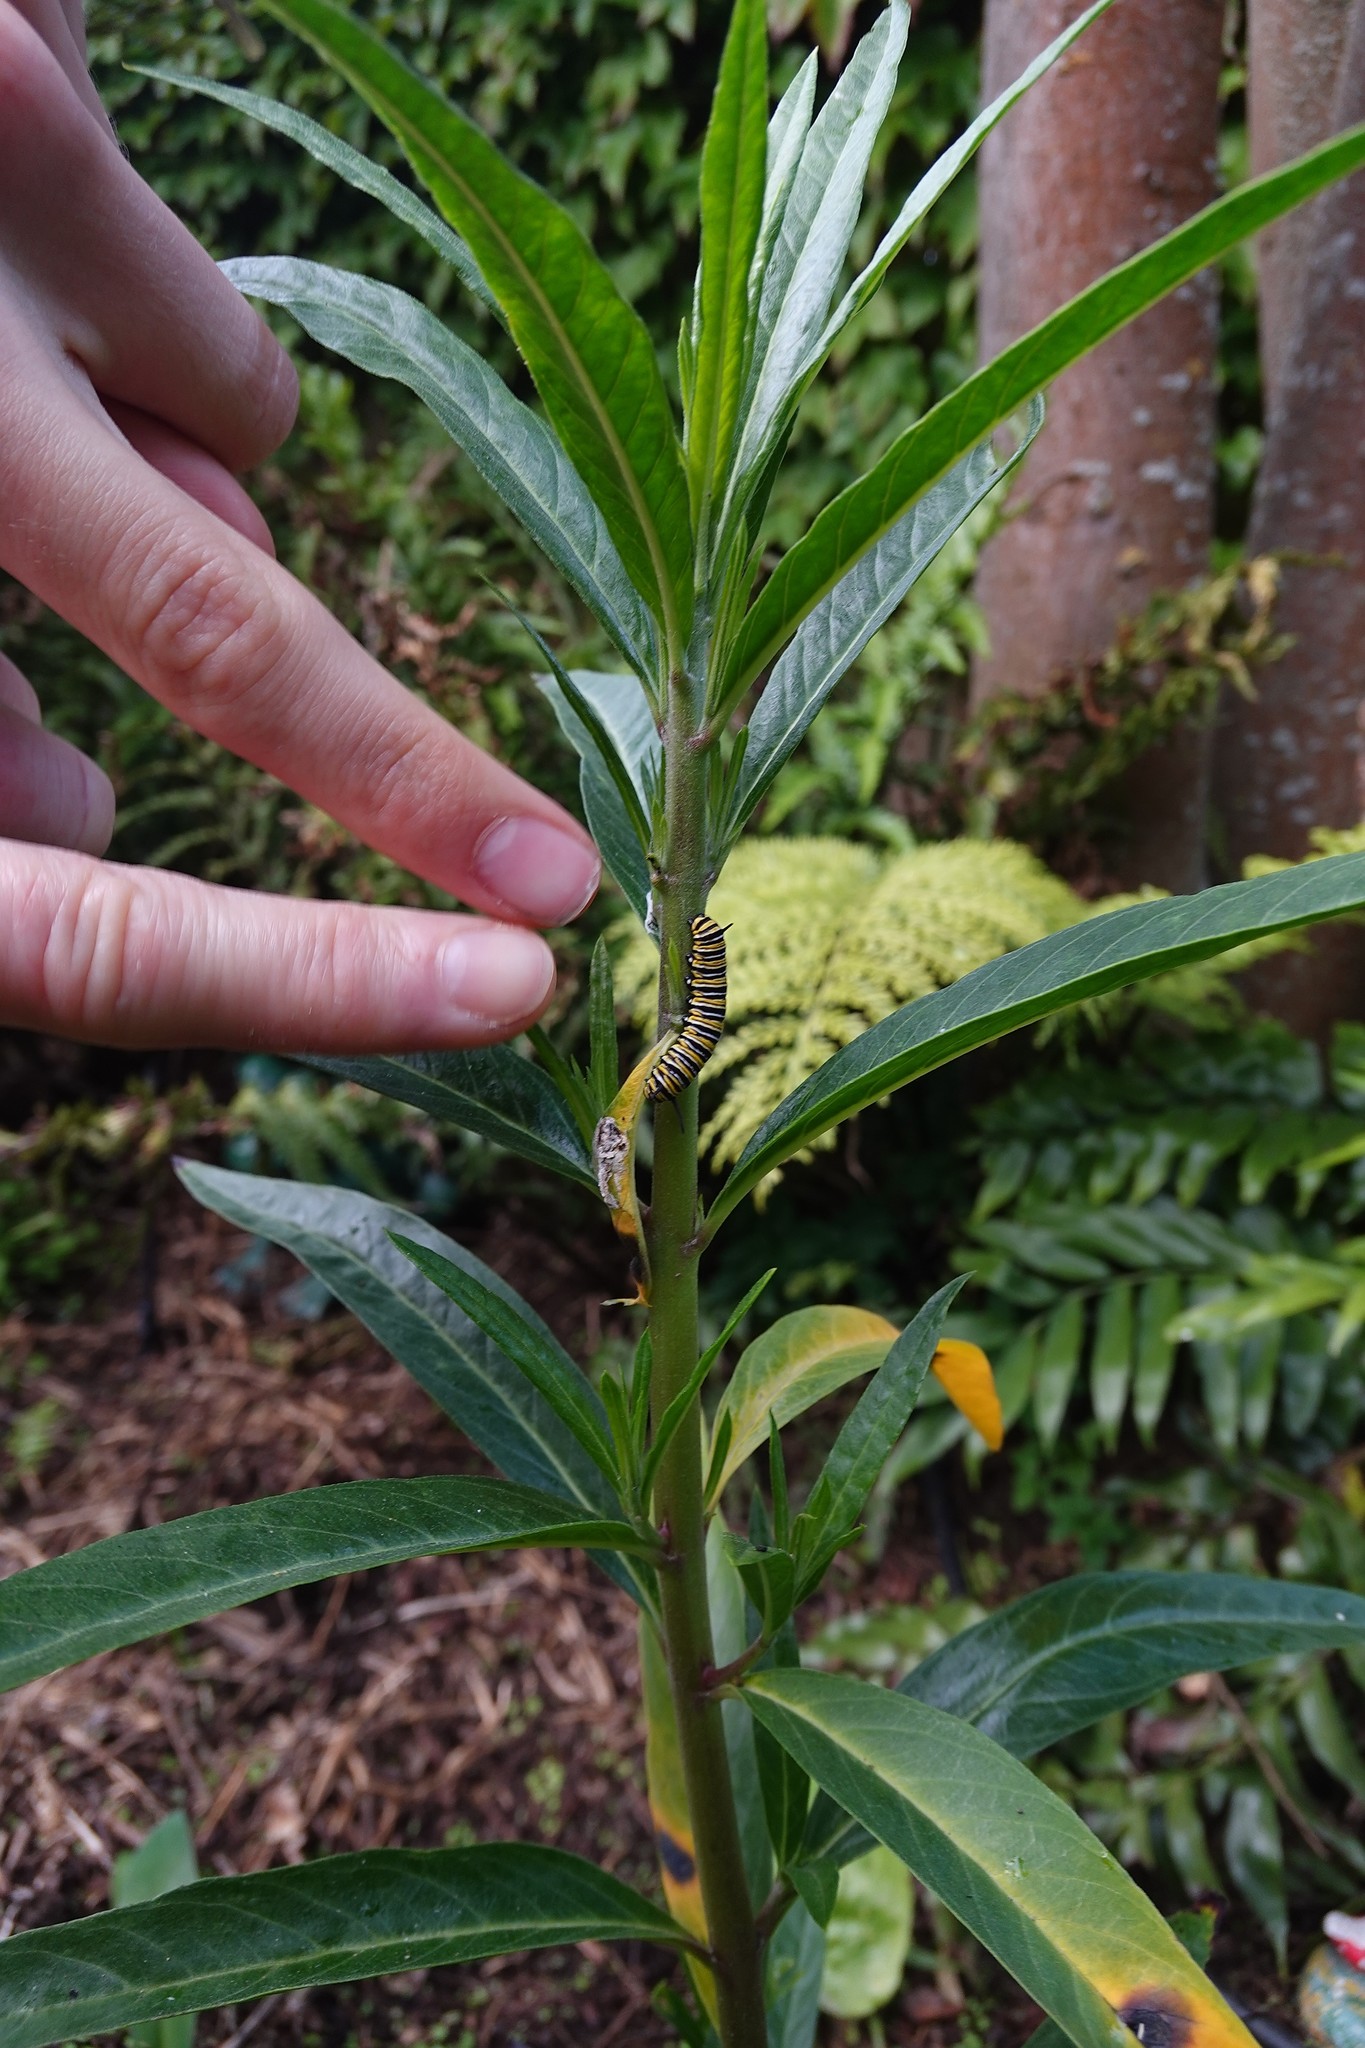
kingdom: Animalia
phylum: Arthropoda
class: Insecta
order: Lepidoptera
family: Nymphalidae
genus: Danaus
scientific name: Danaus plexippus
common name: Monarch
